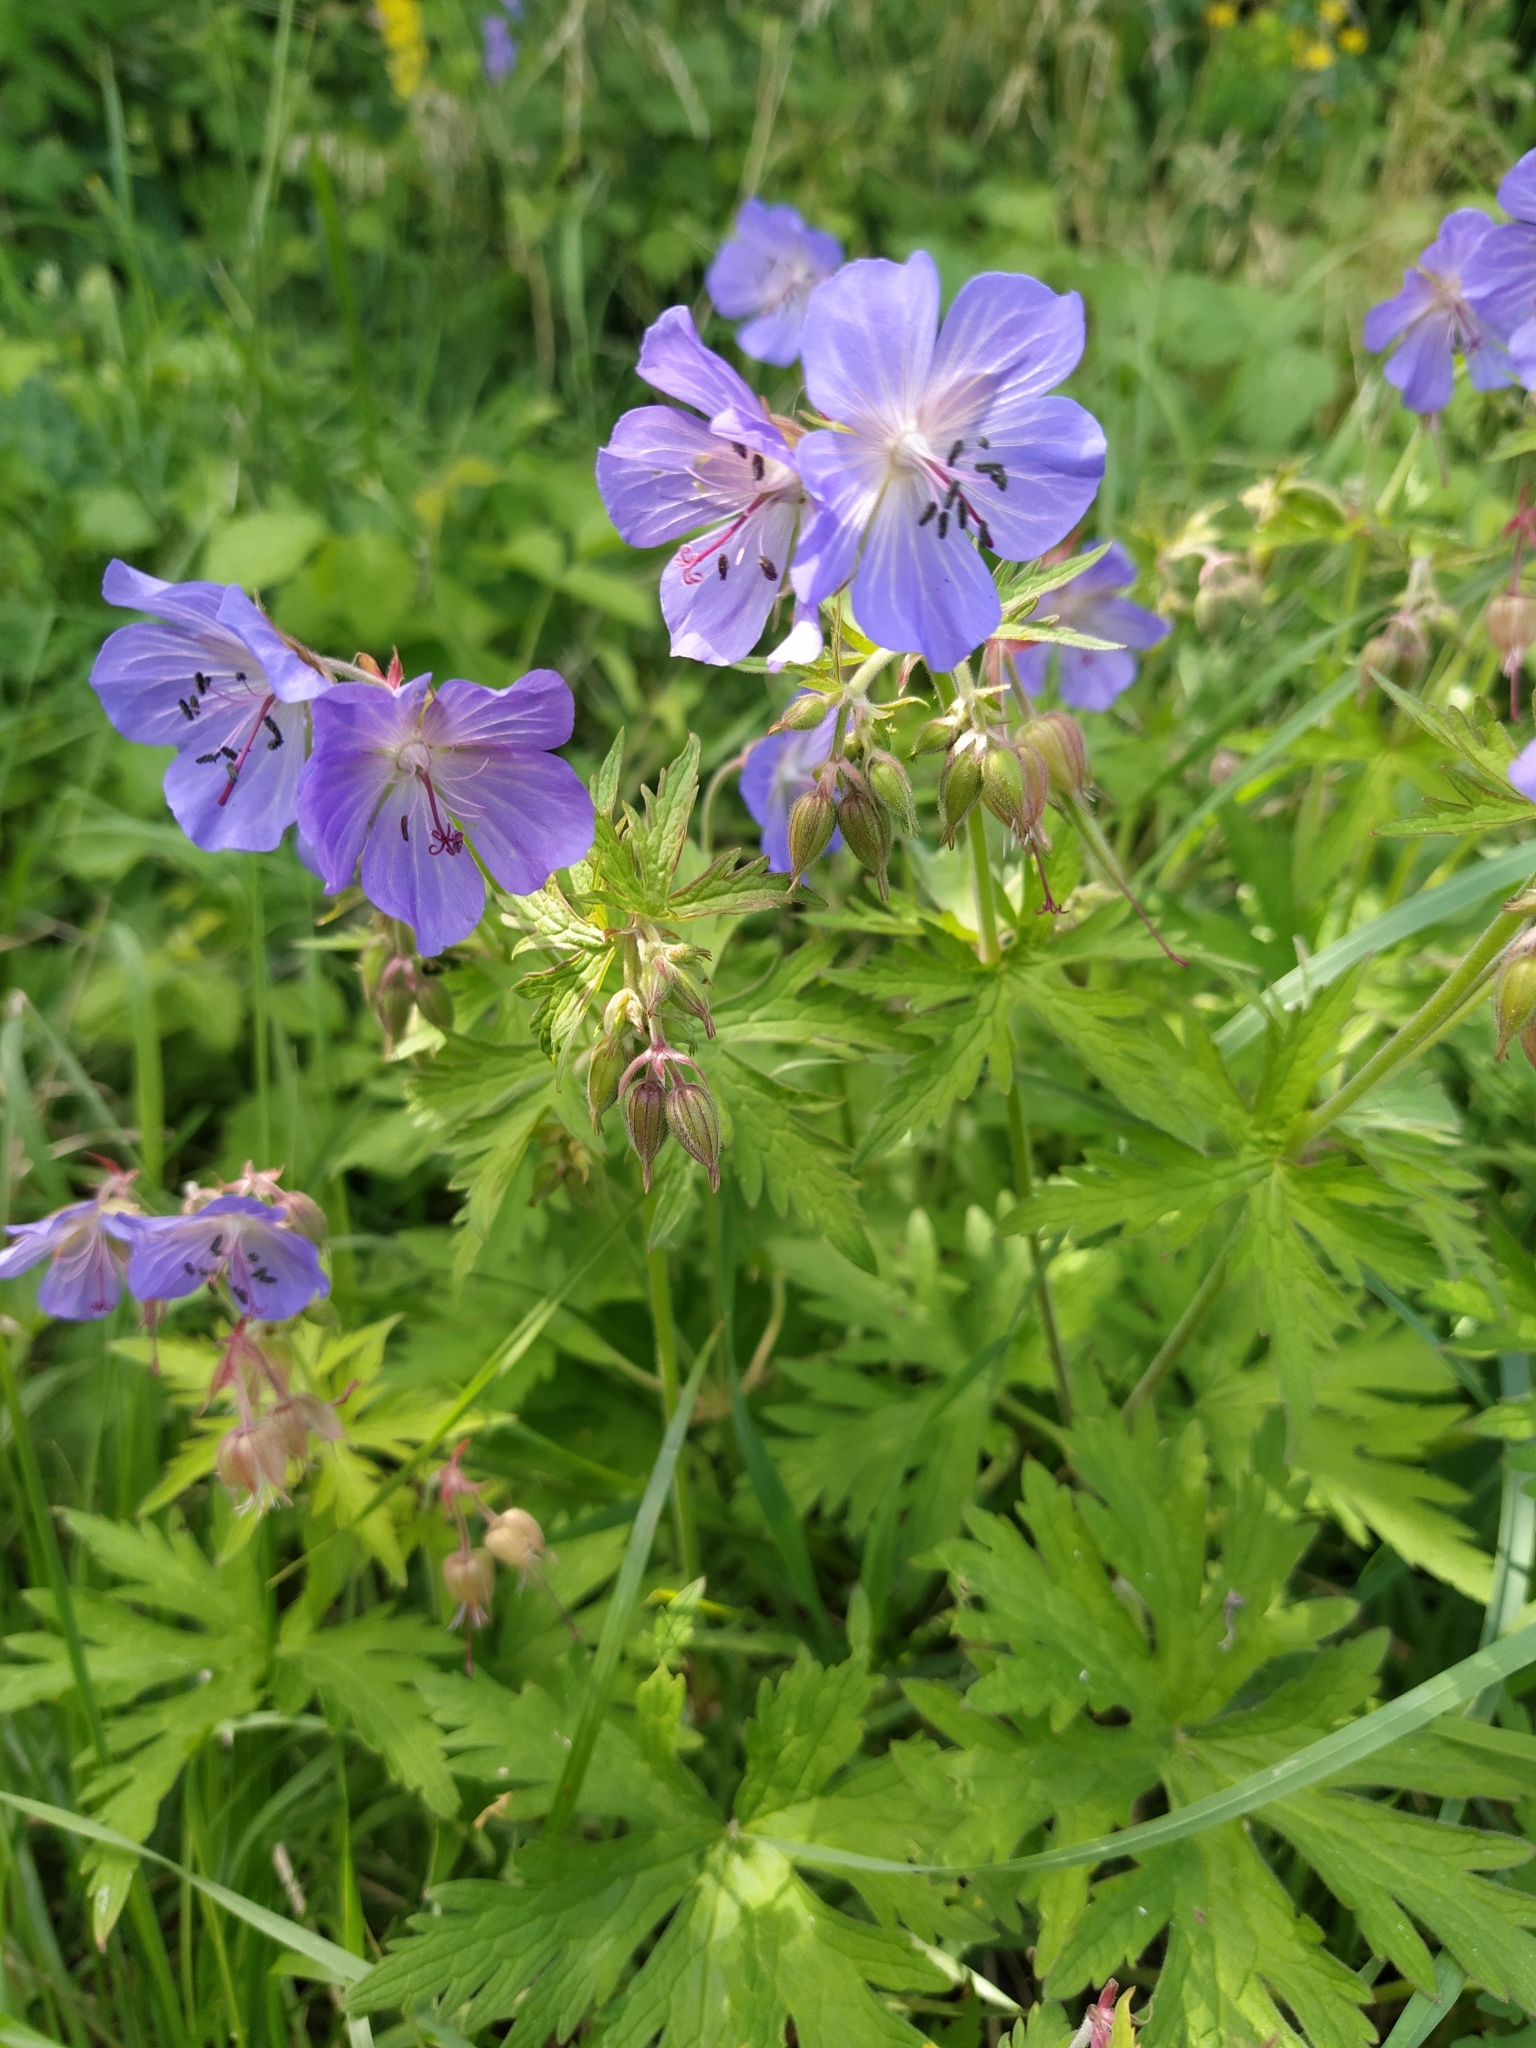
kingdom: Plantae
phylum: Tracheophyta
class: Magnoliopsida
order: Geraniales
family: Geraniaceae
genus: Geranium
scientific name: Geranium pratense
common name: Meadow crane's-bill
